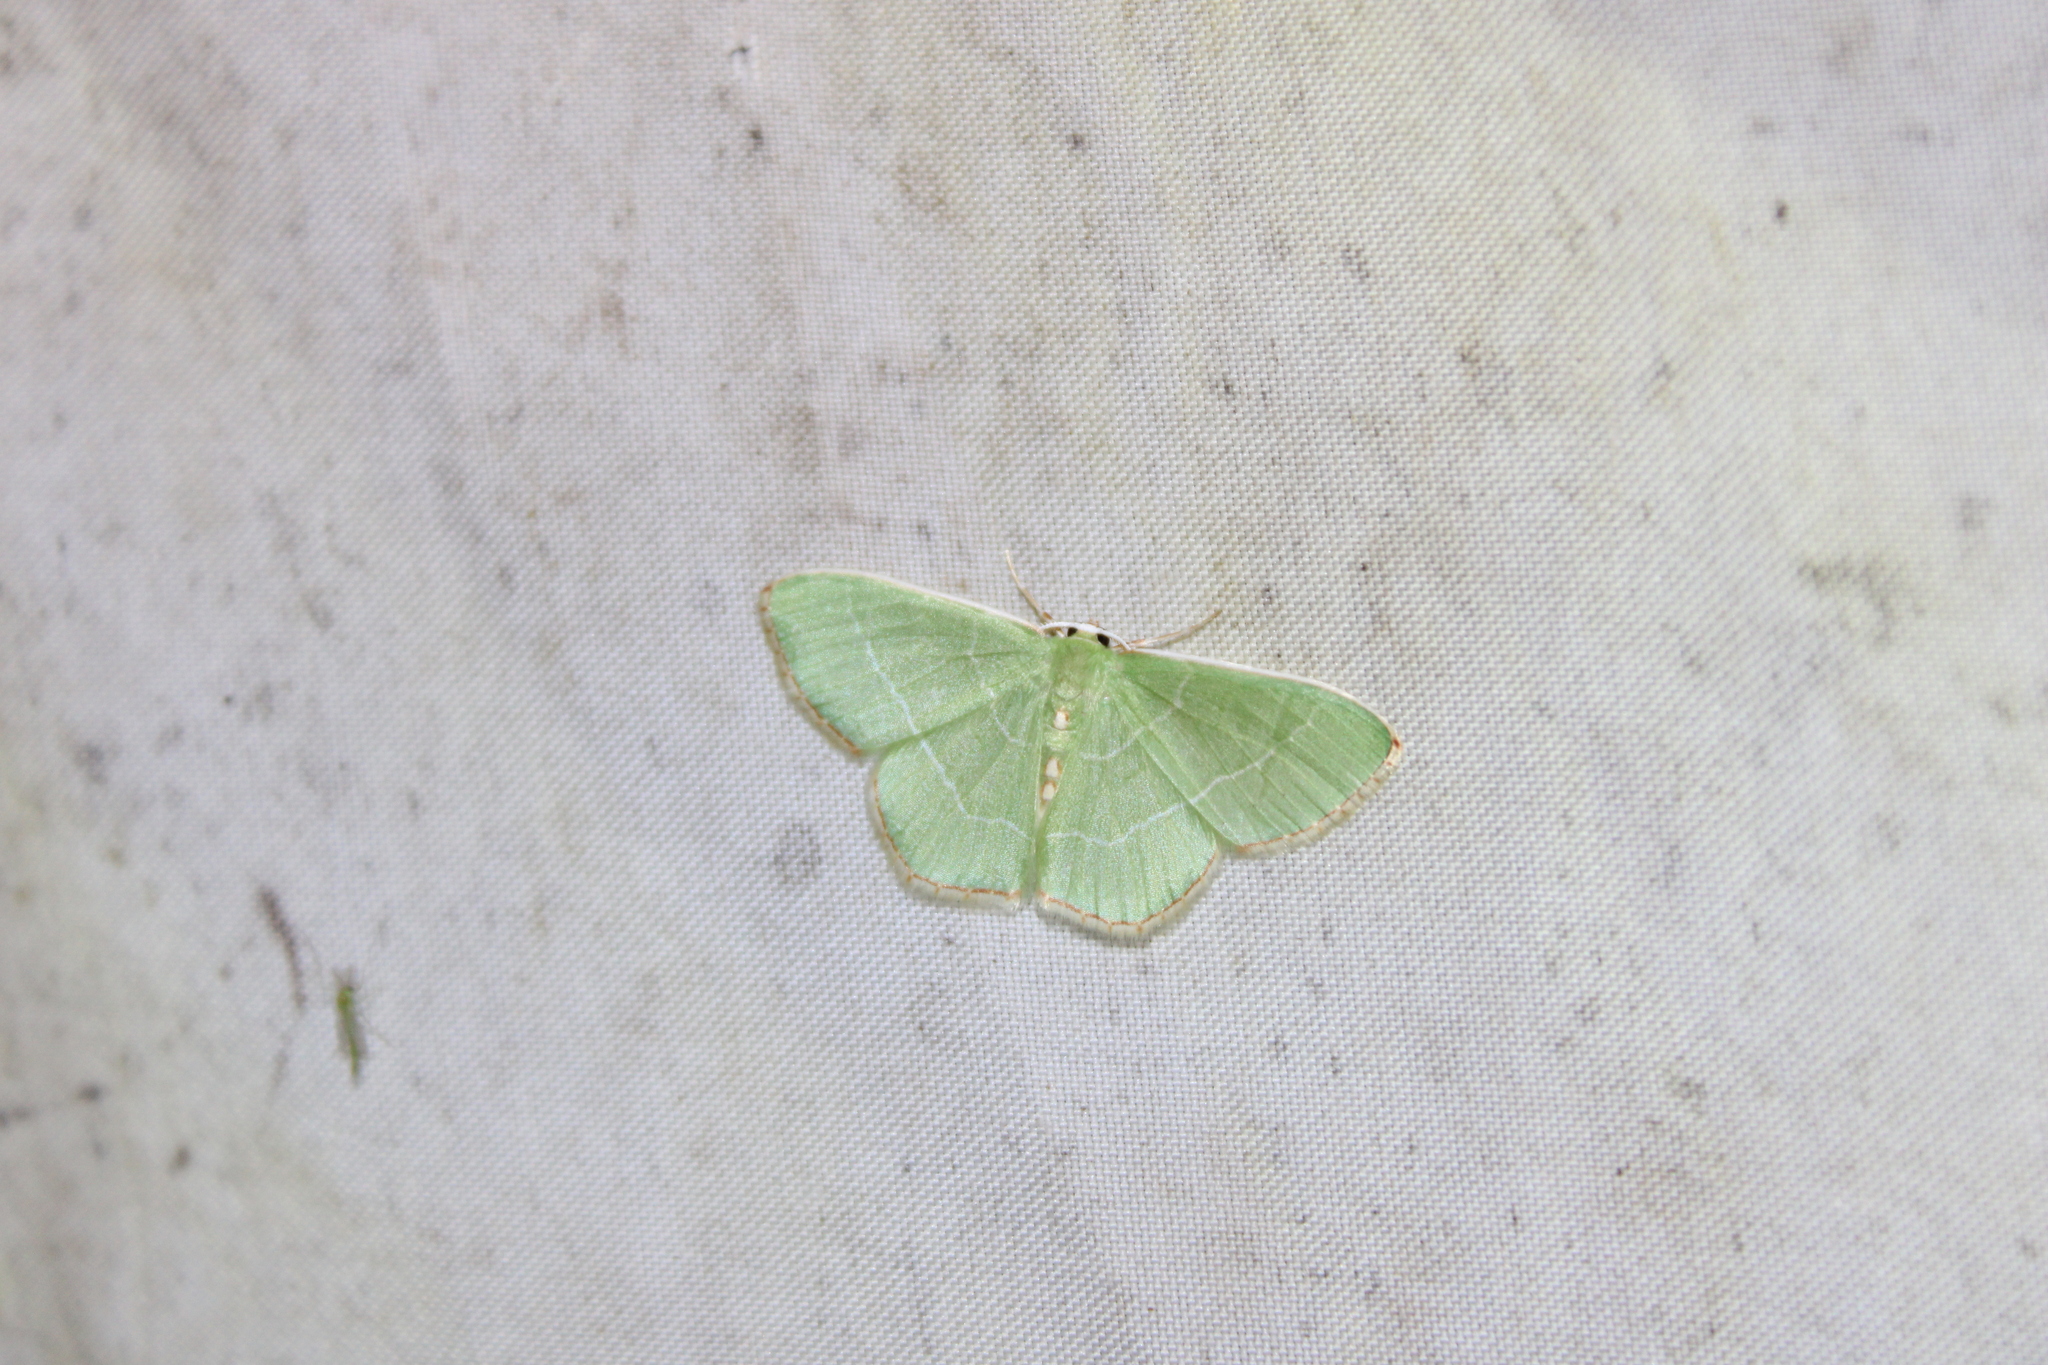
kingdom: Animalia
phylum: Arthropoda
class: Insecta
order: Lepidoptera
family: Geometridae
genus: Nemoria
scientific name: Nemoria bistriaria
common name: Red-fringed emerald
